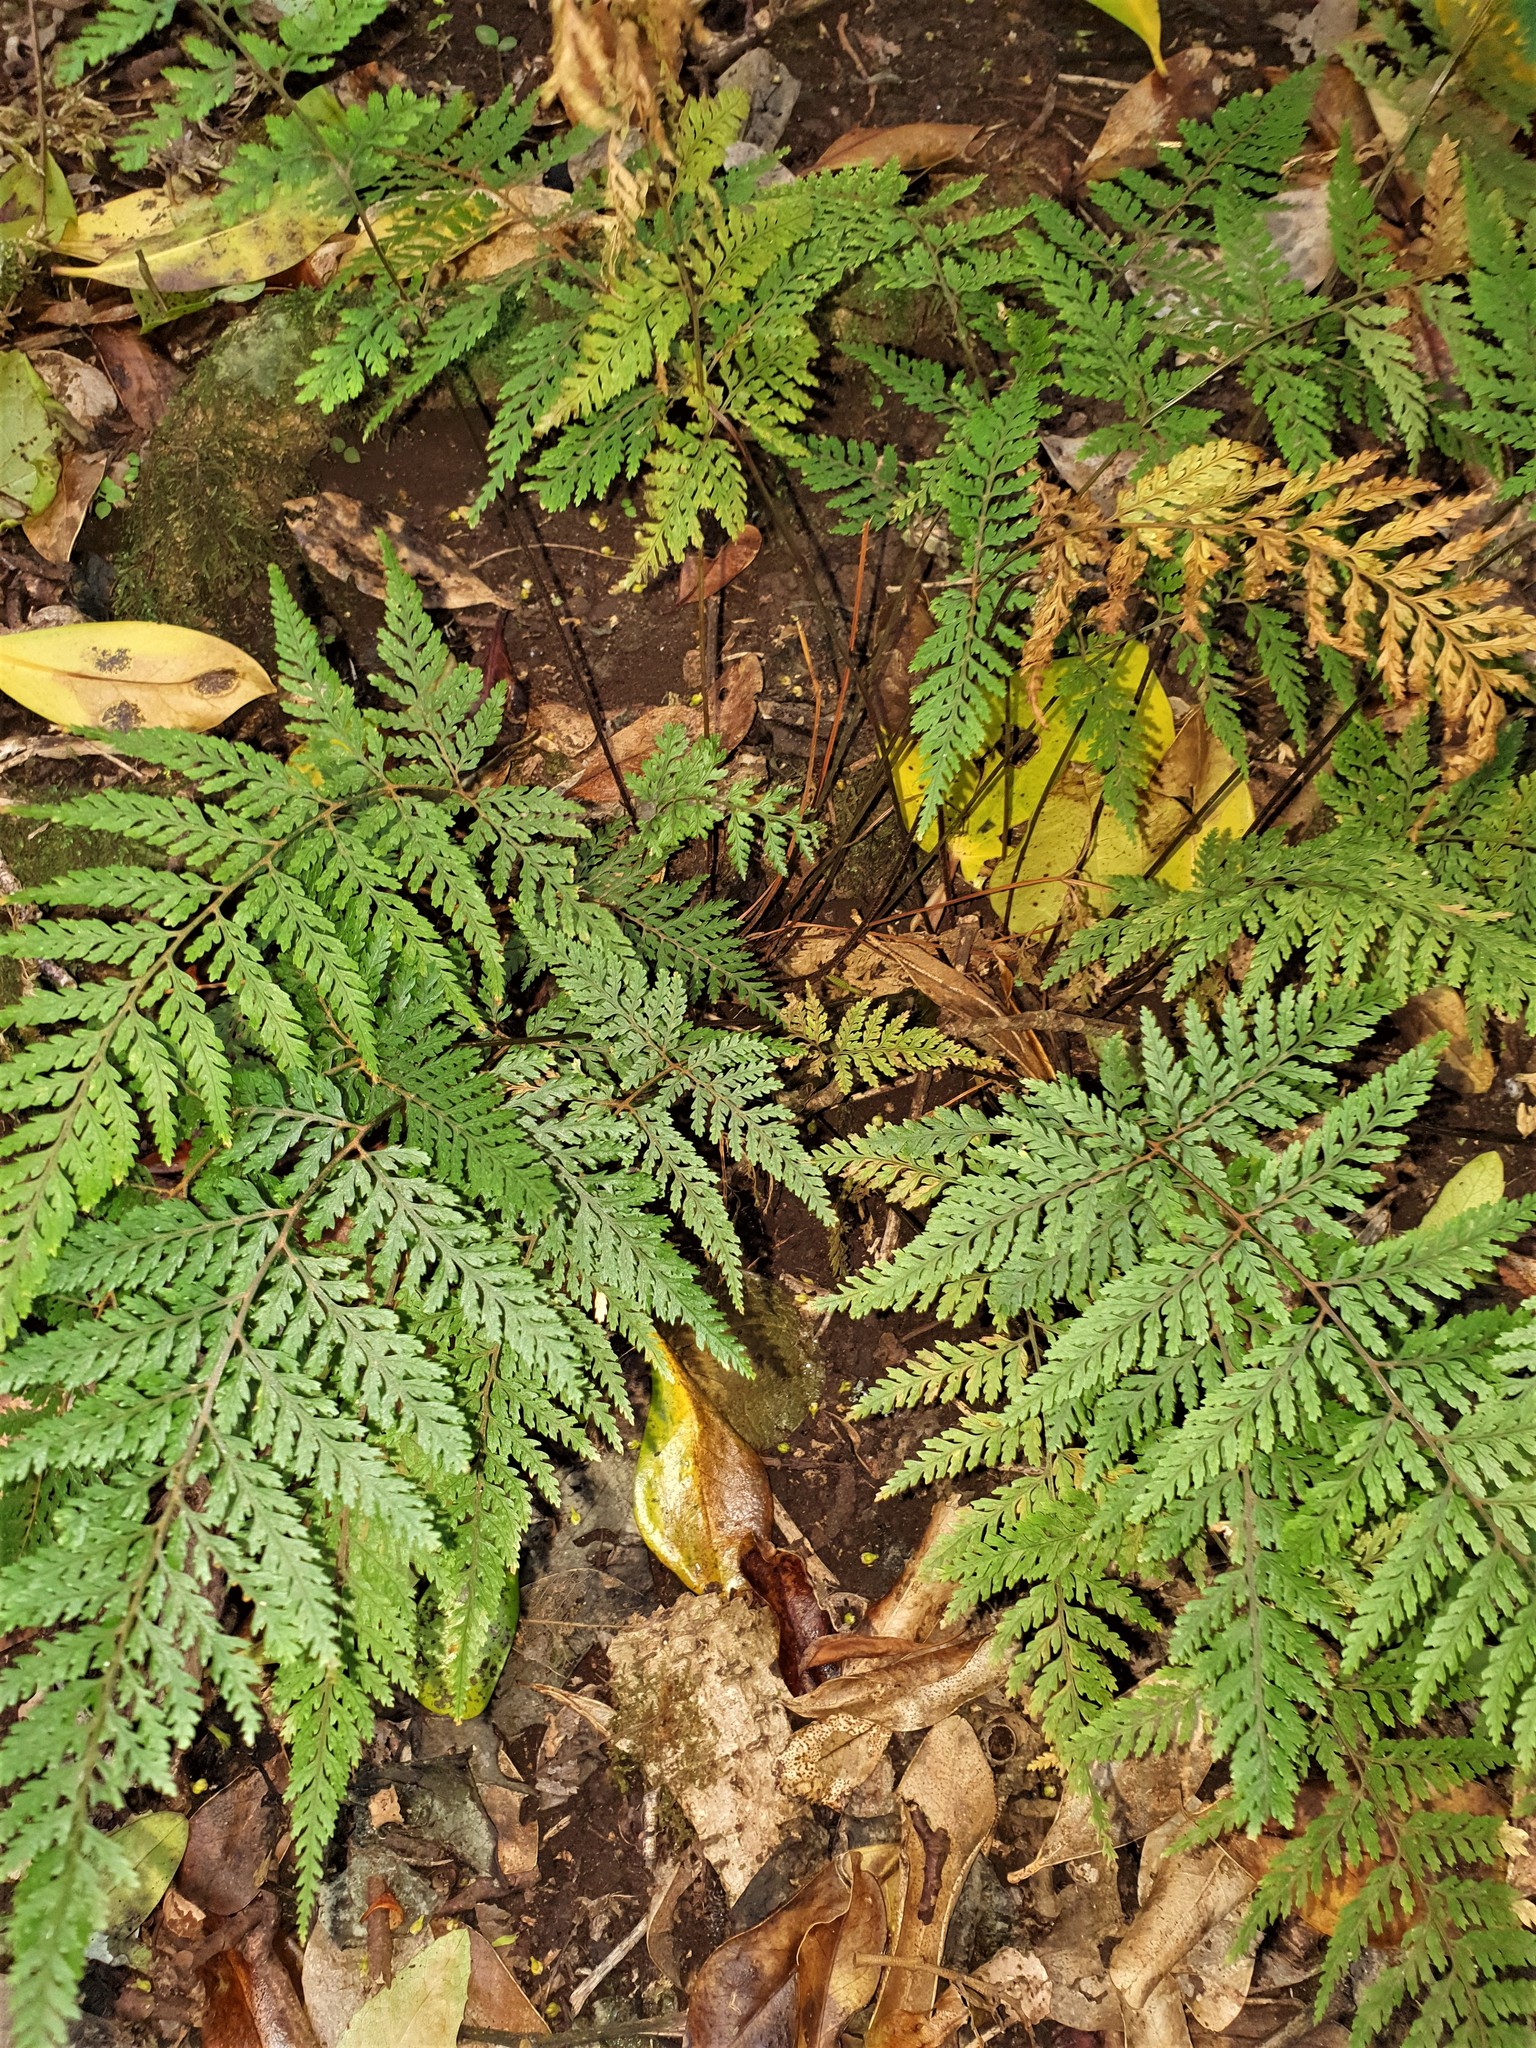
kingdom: Plantae
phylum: Tracheophyta
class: Polypodiopsida
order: Polypodiales
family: Dryopteridaceae
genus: Parapolystichum
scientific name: Parapolystichum glabellum
